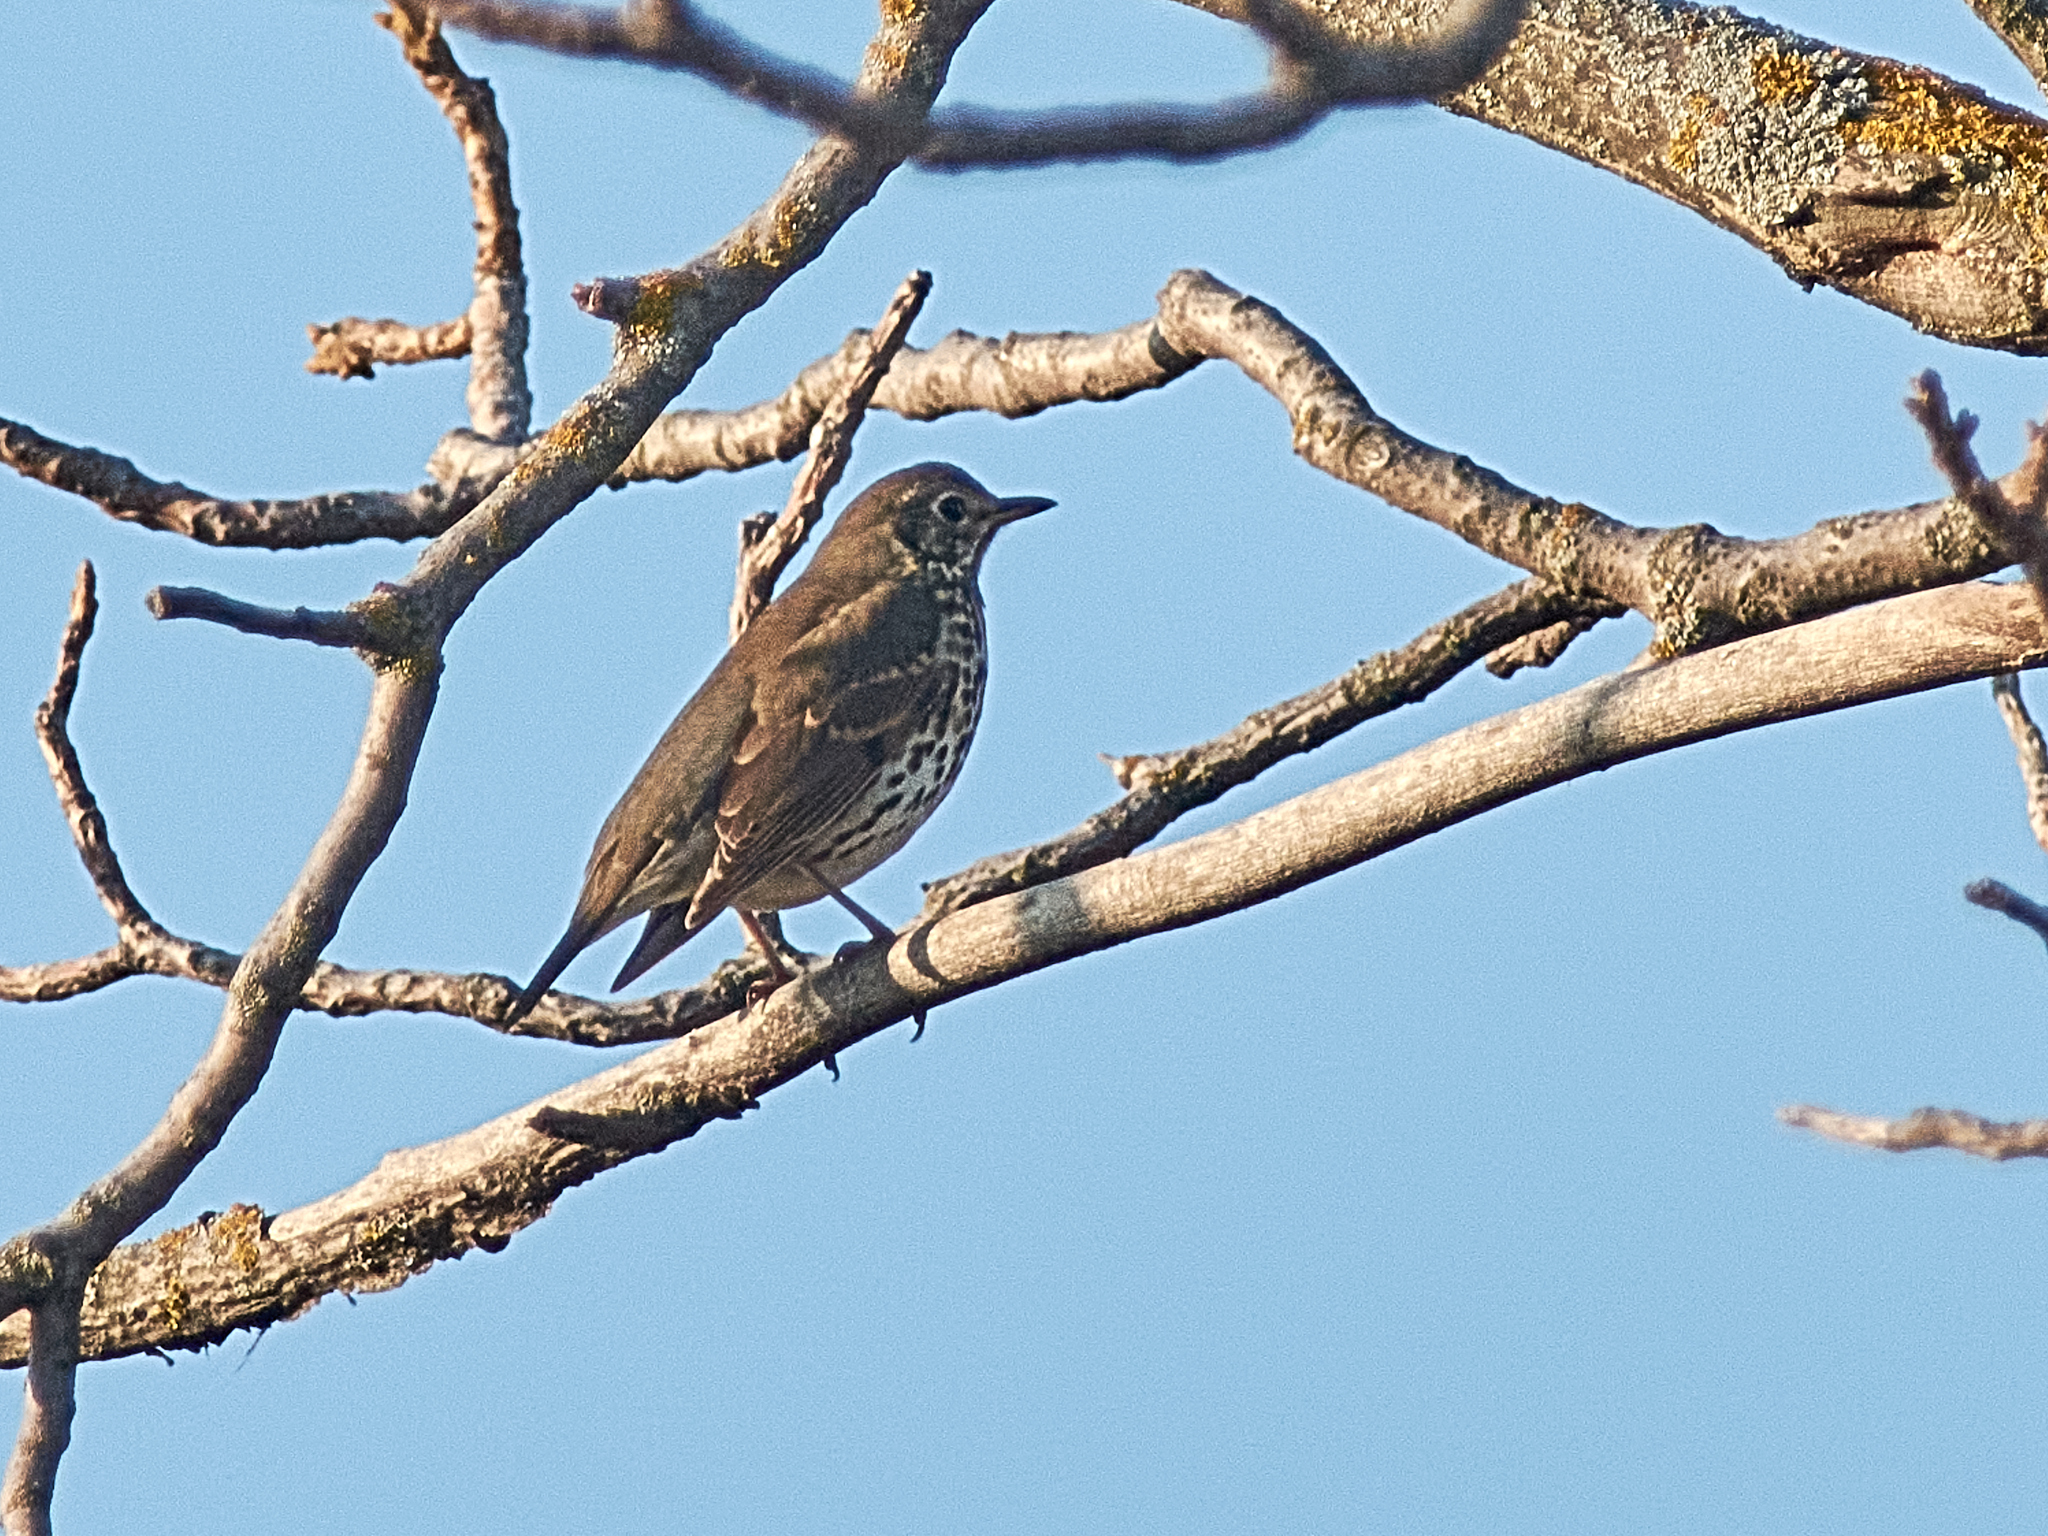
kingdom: Animalia
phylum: Chordata
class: Aves
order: Passeriformes
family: Turdidae
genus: Turdus
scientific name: Turdus philomelos
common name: Song thrush
